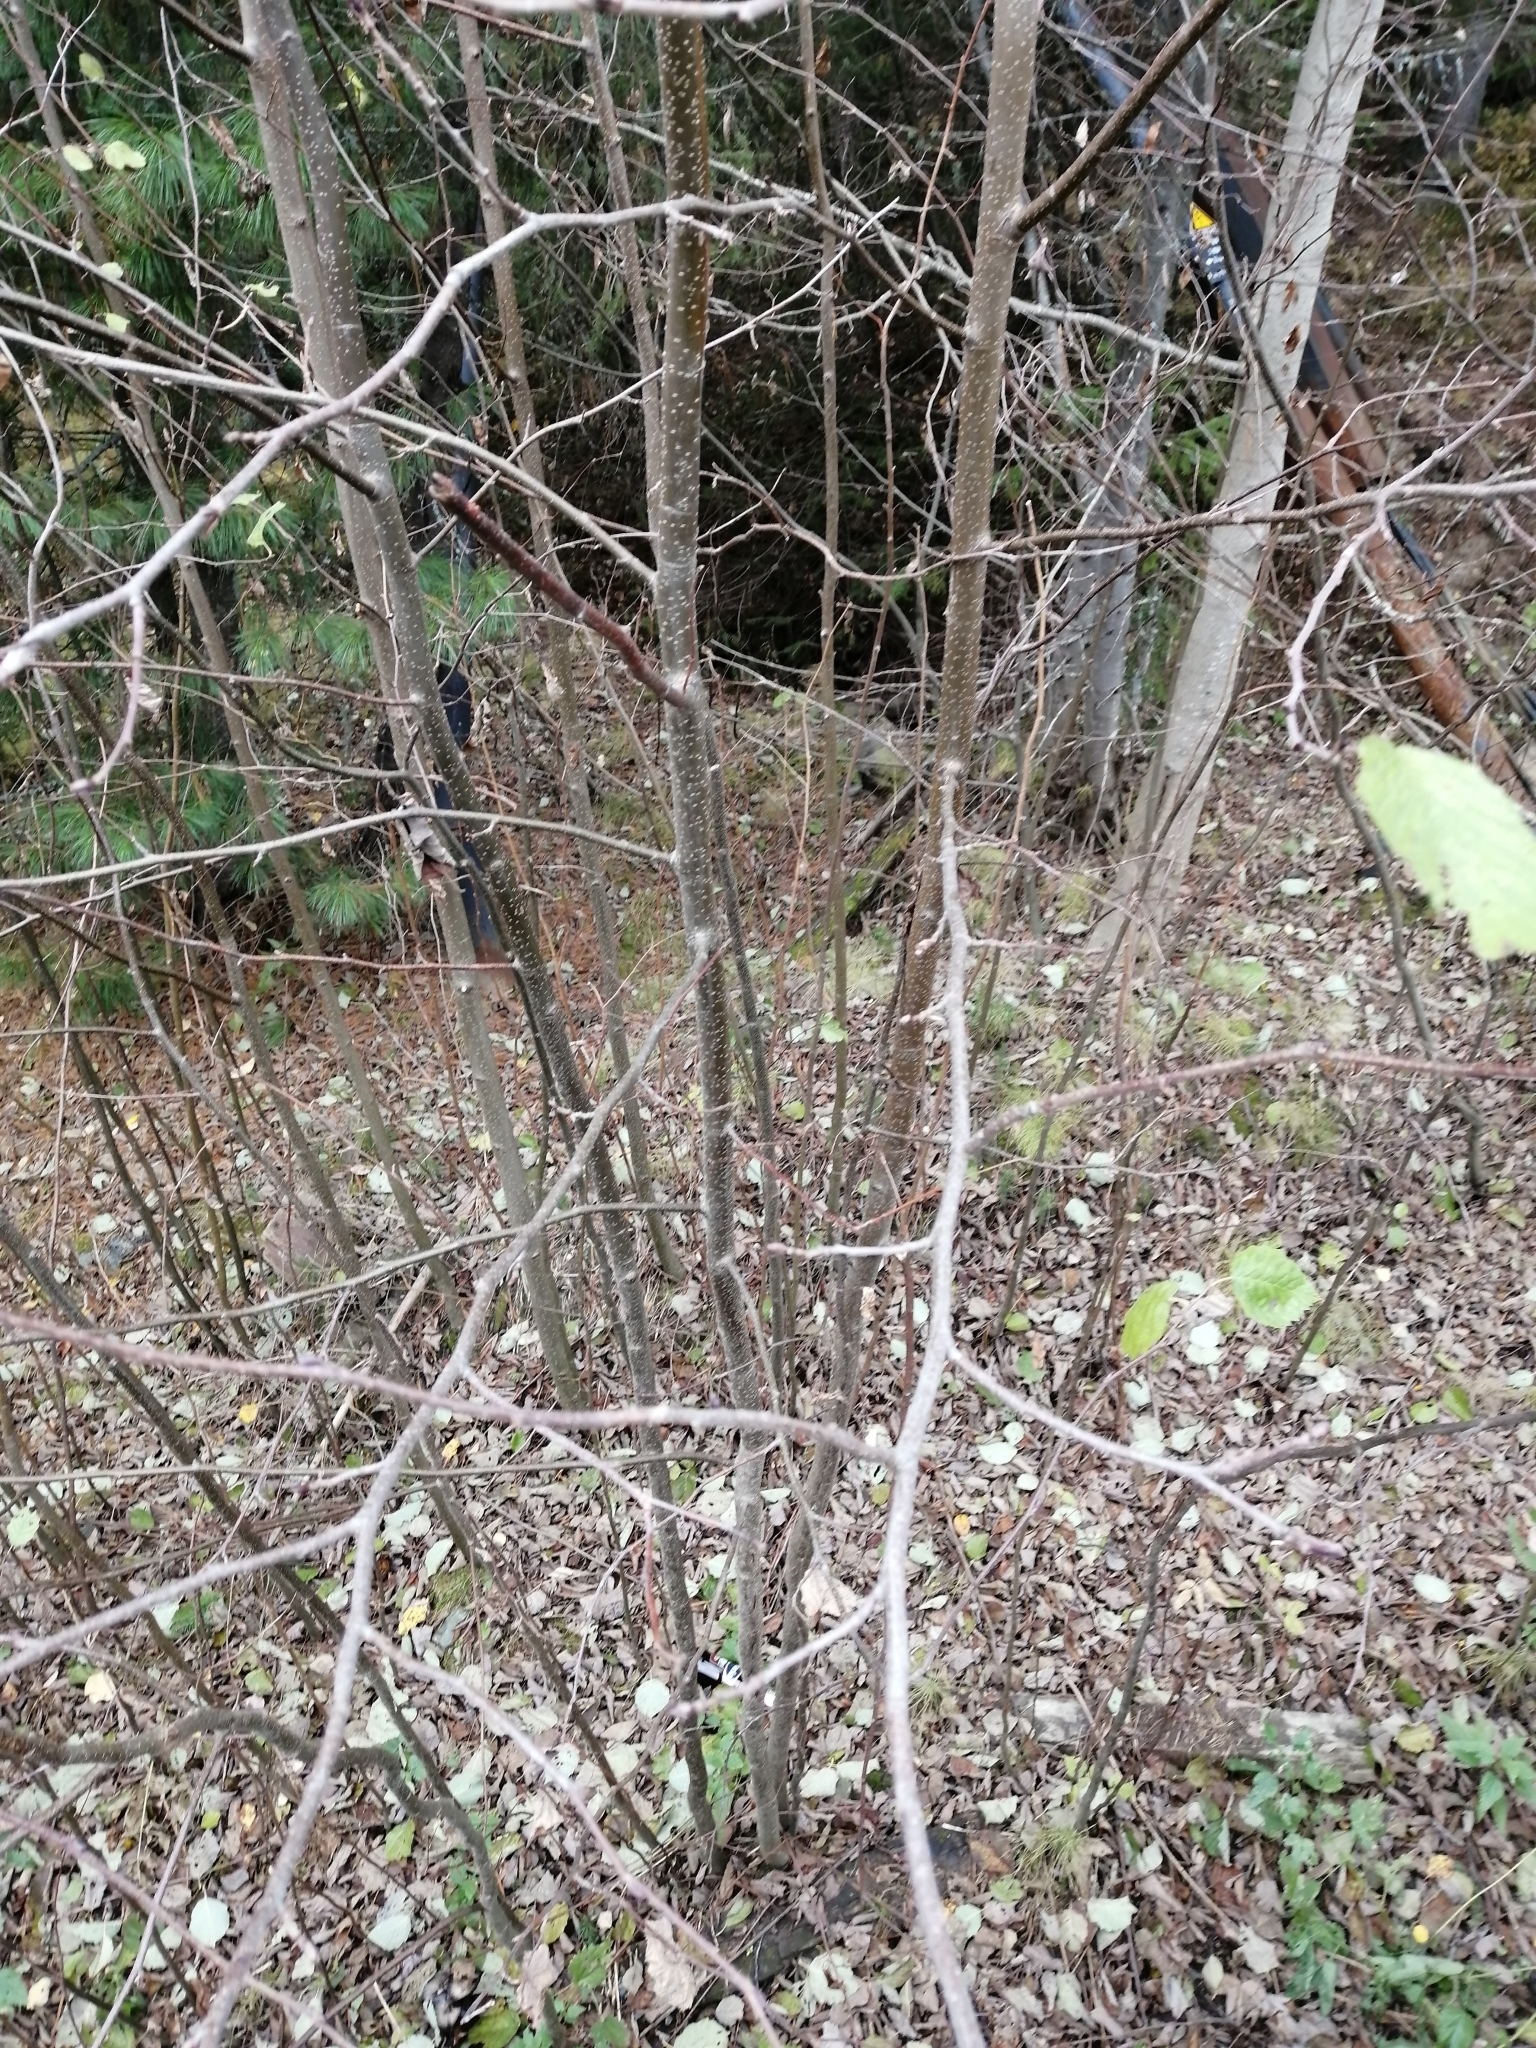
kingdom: Plantae
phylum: Tracheophyta
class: Magnoliopsida
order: Fagales
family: Betulaceae
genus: Alnus
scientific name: Alnus incana
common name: Grey alder
